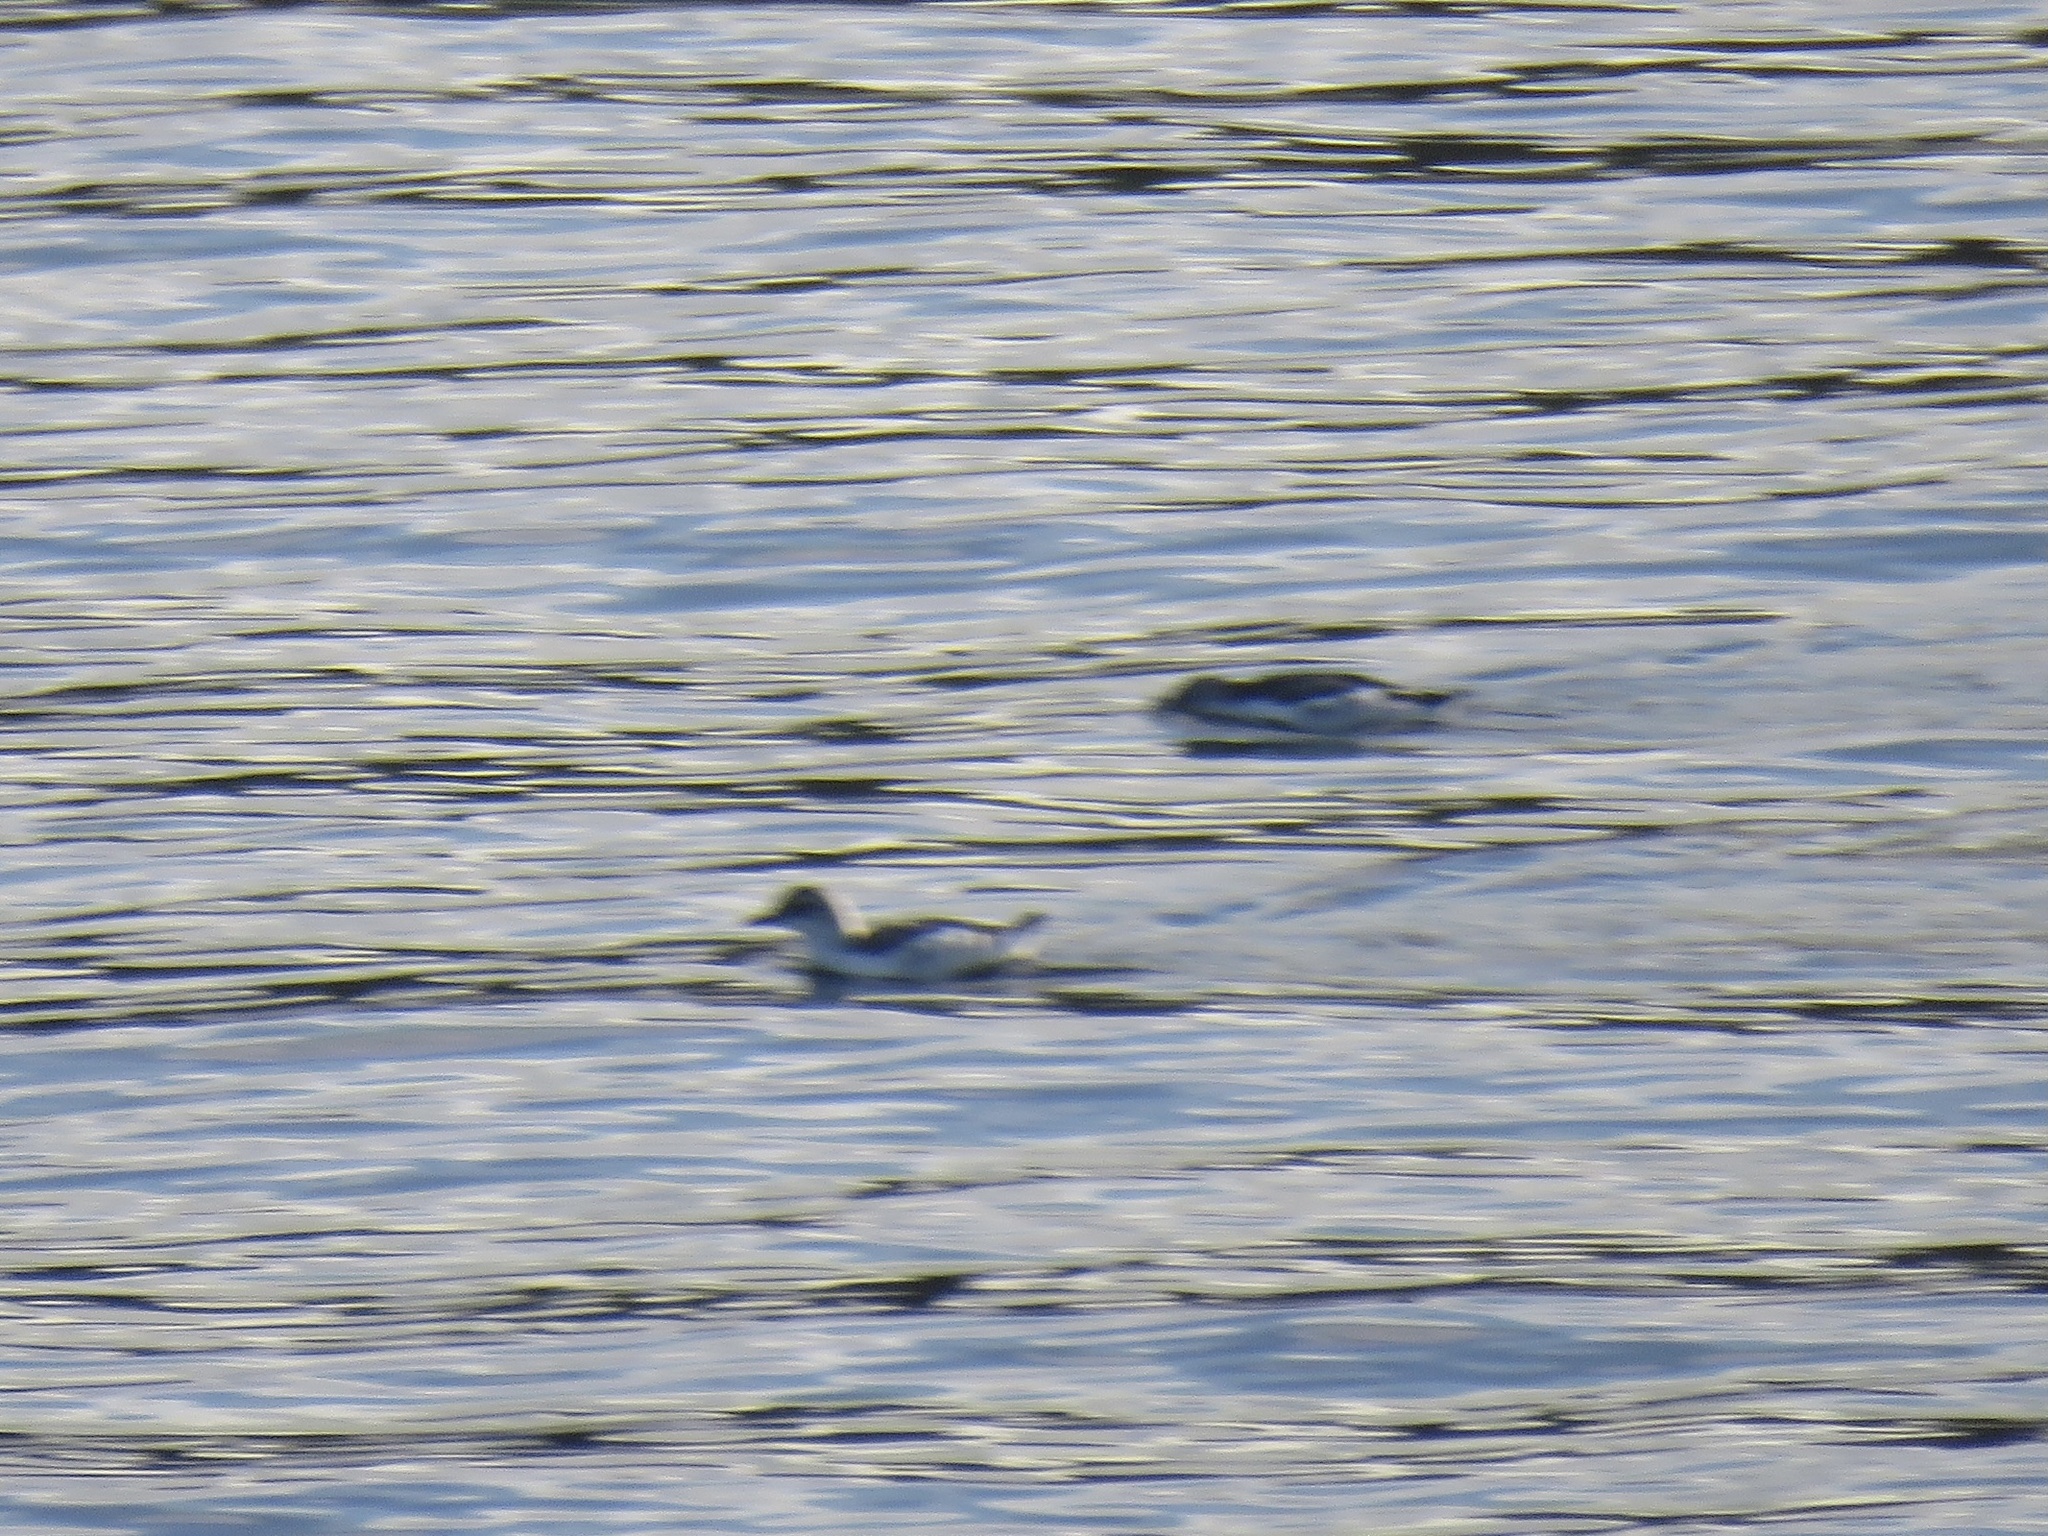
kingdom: Animalia
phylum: Chordata
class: Aves
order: Charadriiformes
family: Alcidae
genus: Cepphus
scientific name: Cepphus columba
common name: Pigeon guillemot
